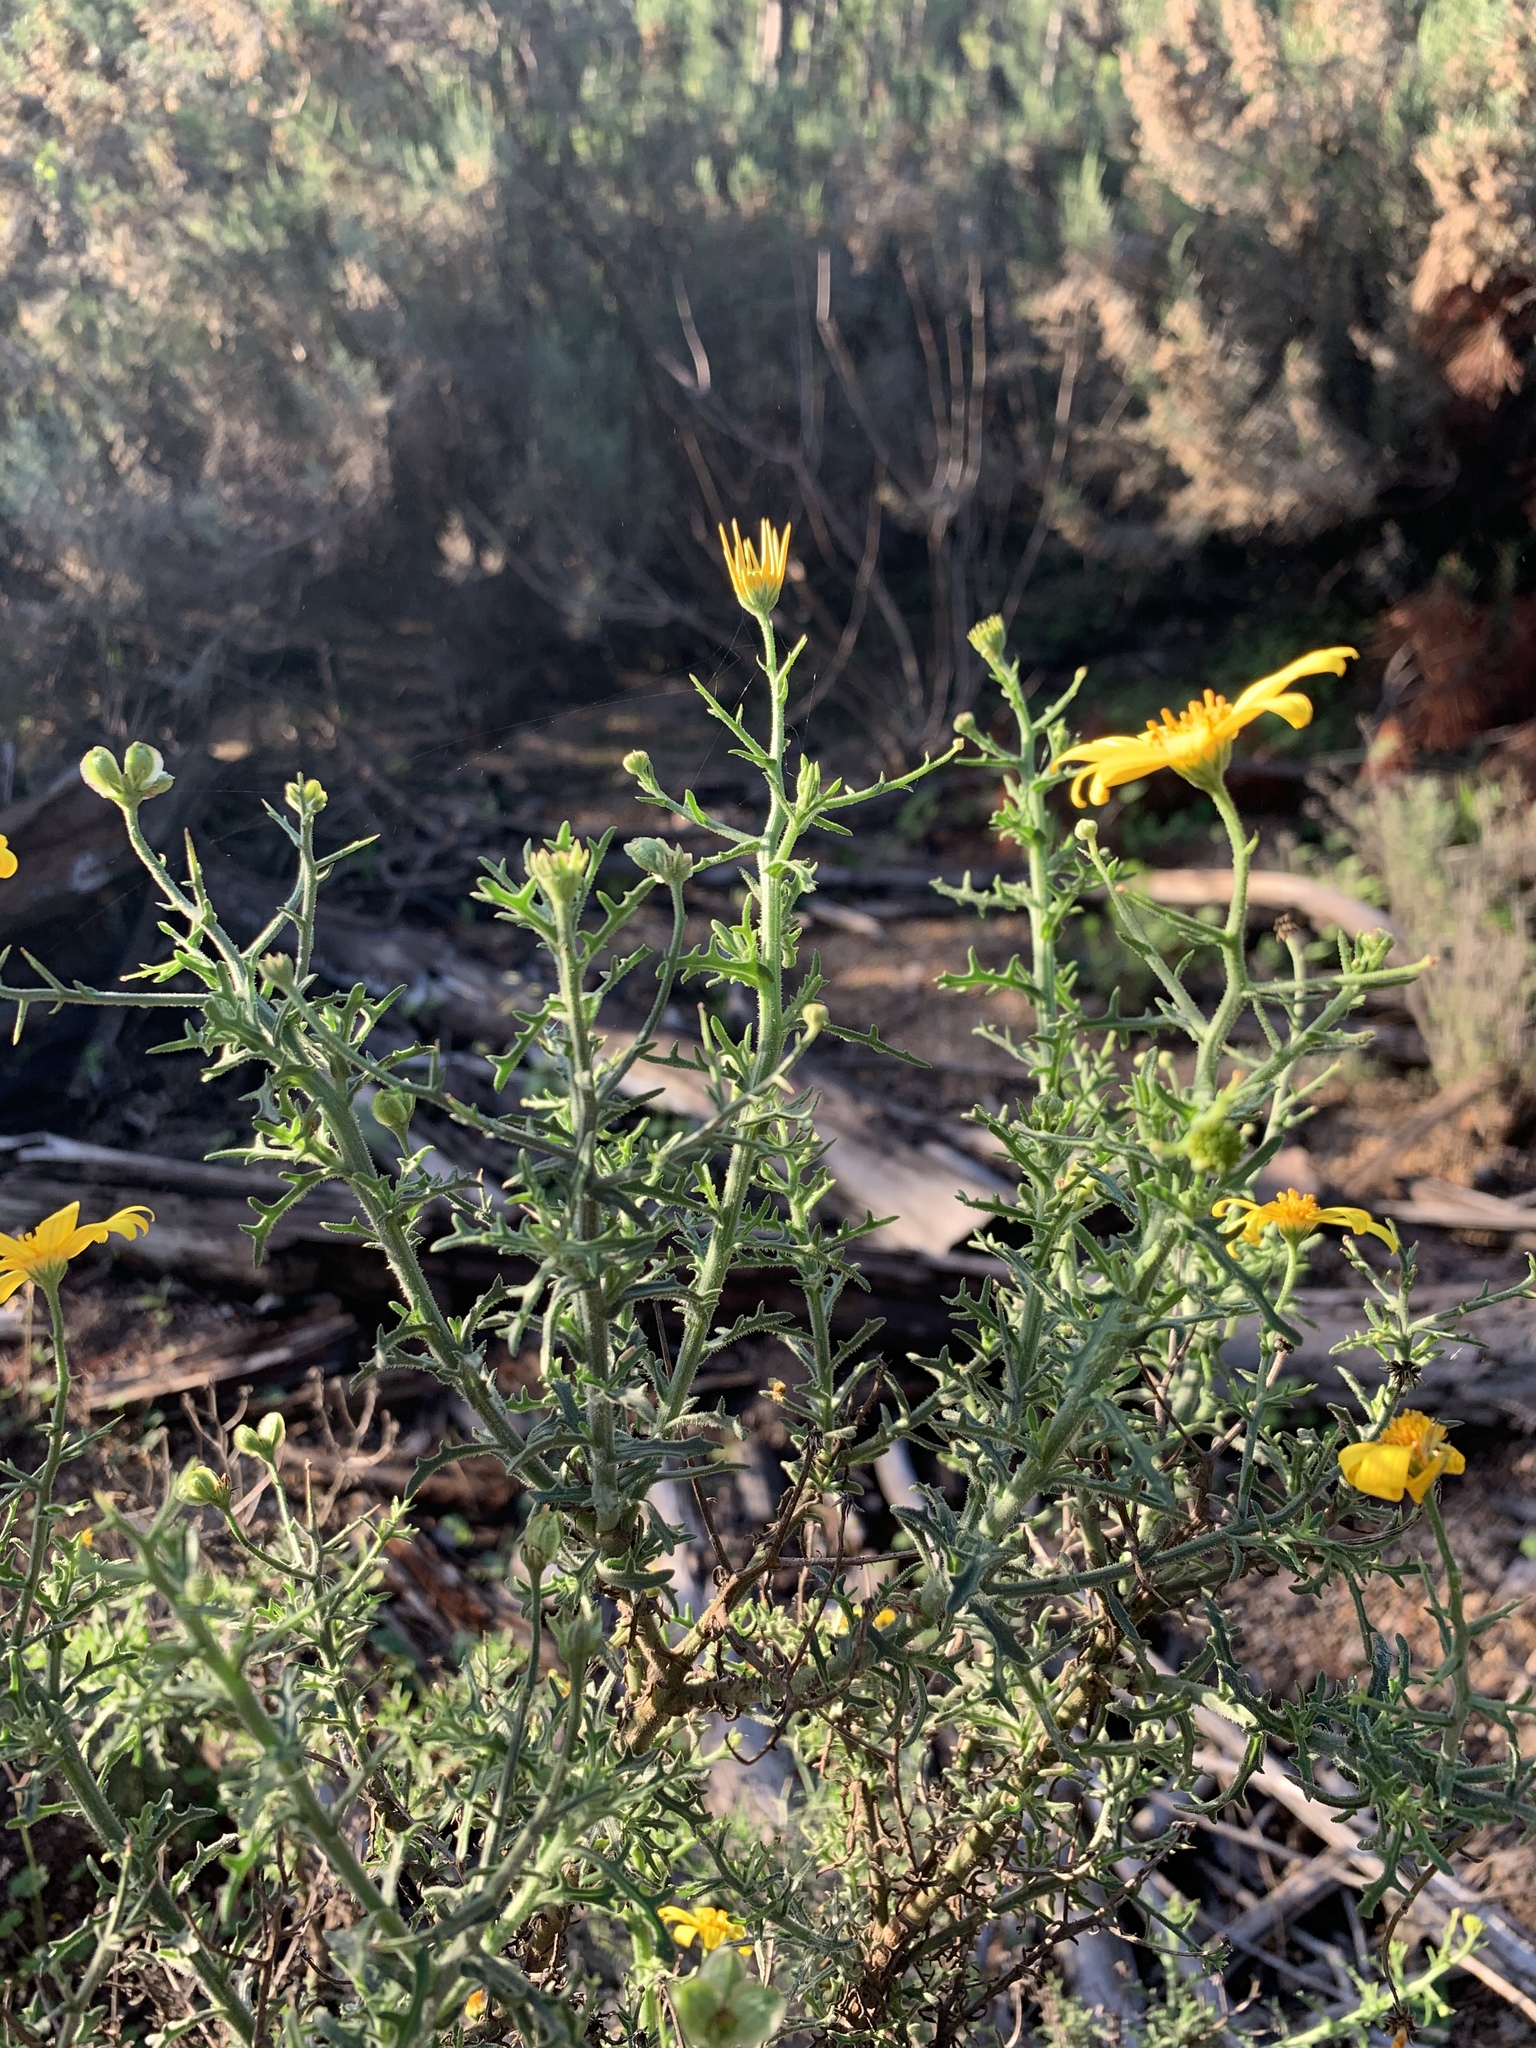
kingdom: Plantae
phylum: Tracheophyta
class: Magnoliopsida
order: Asterales
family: Asteraceae
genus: Osteospermum
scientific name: Osteospermum spinosum
